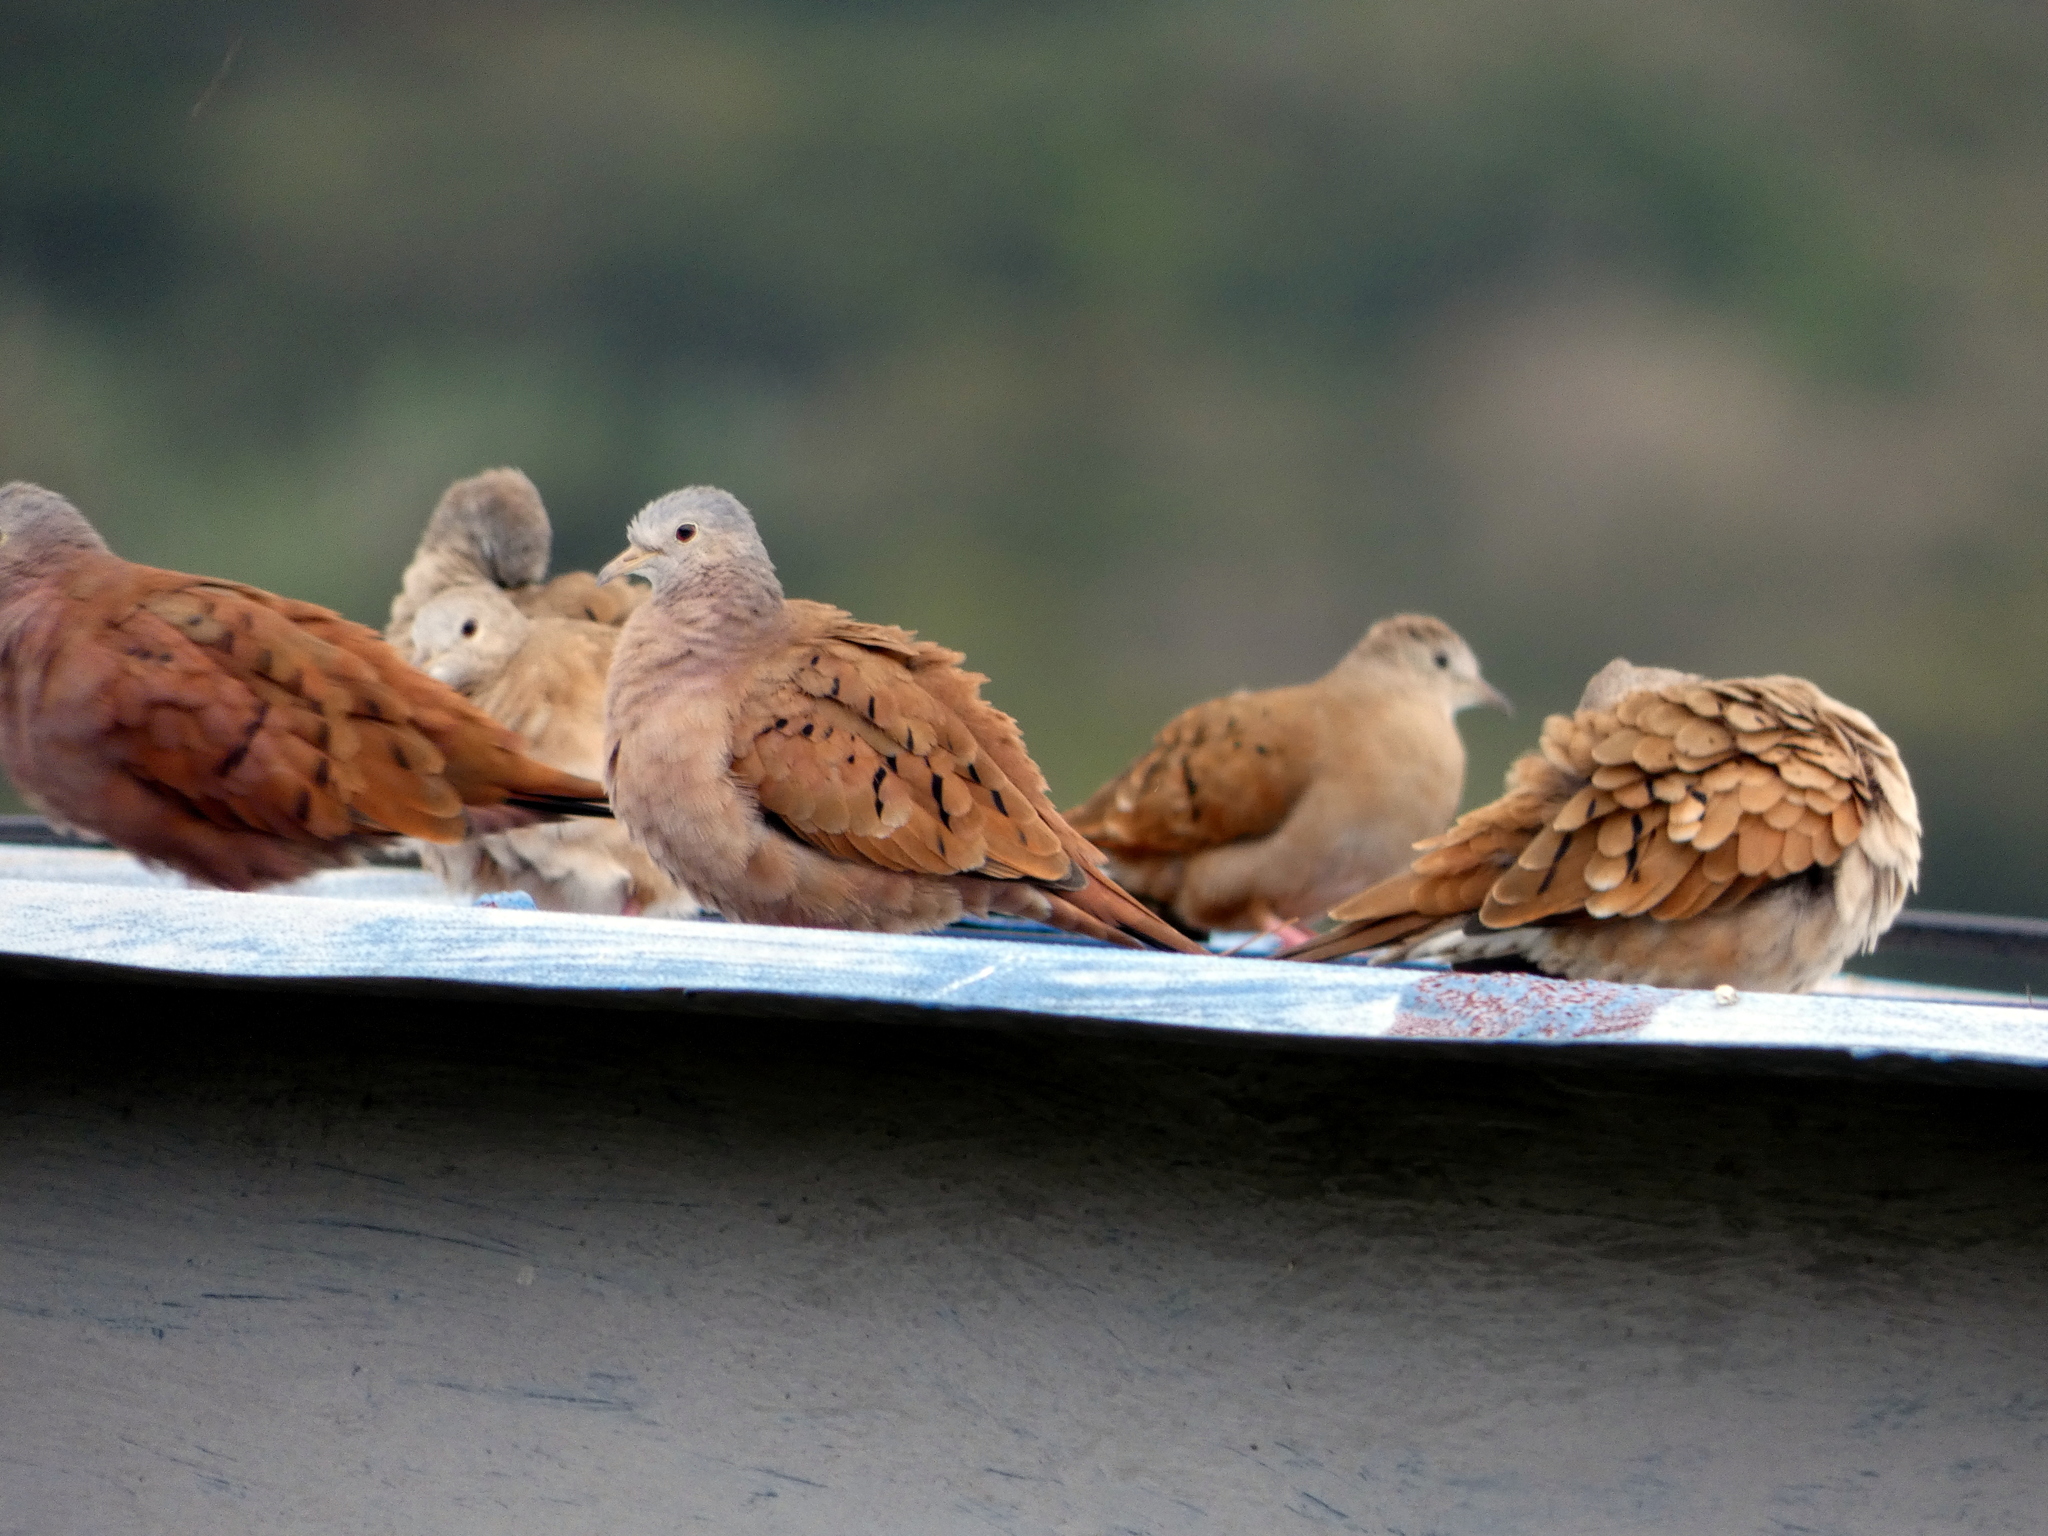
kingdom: Animalia
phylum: Chordata
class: Aves
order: Columbiformes
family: Columbidae
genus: Columbina
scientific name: Columbina talpacoti
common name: Ruddy ground dove
